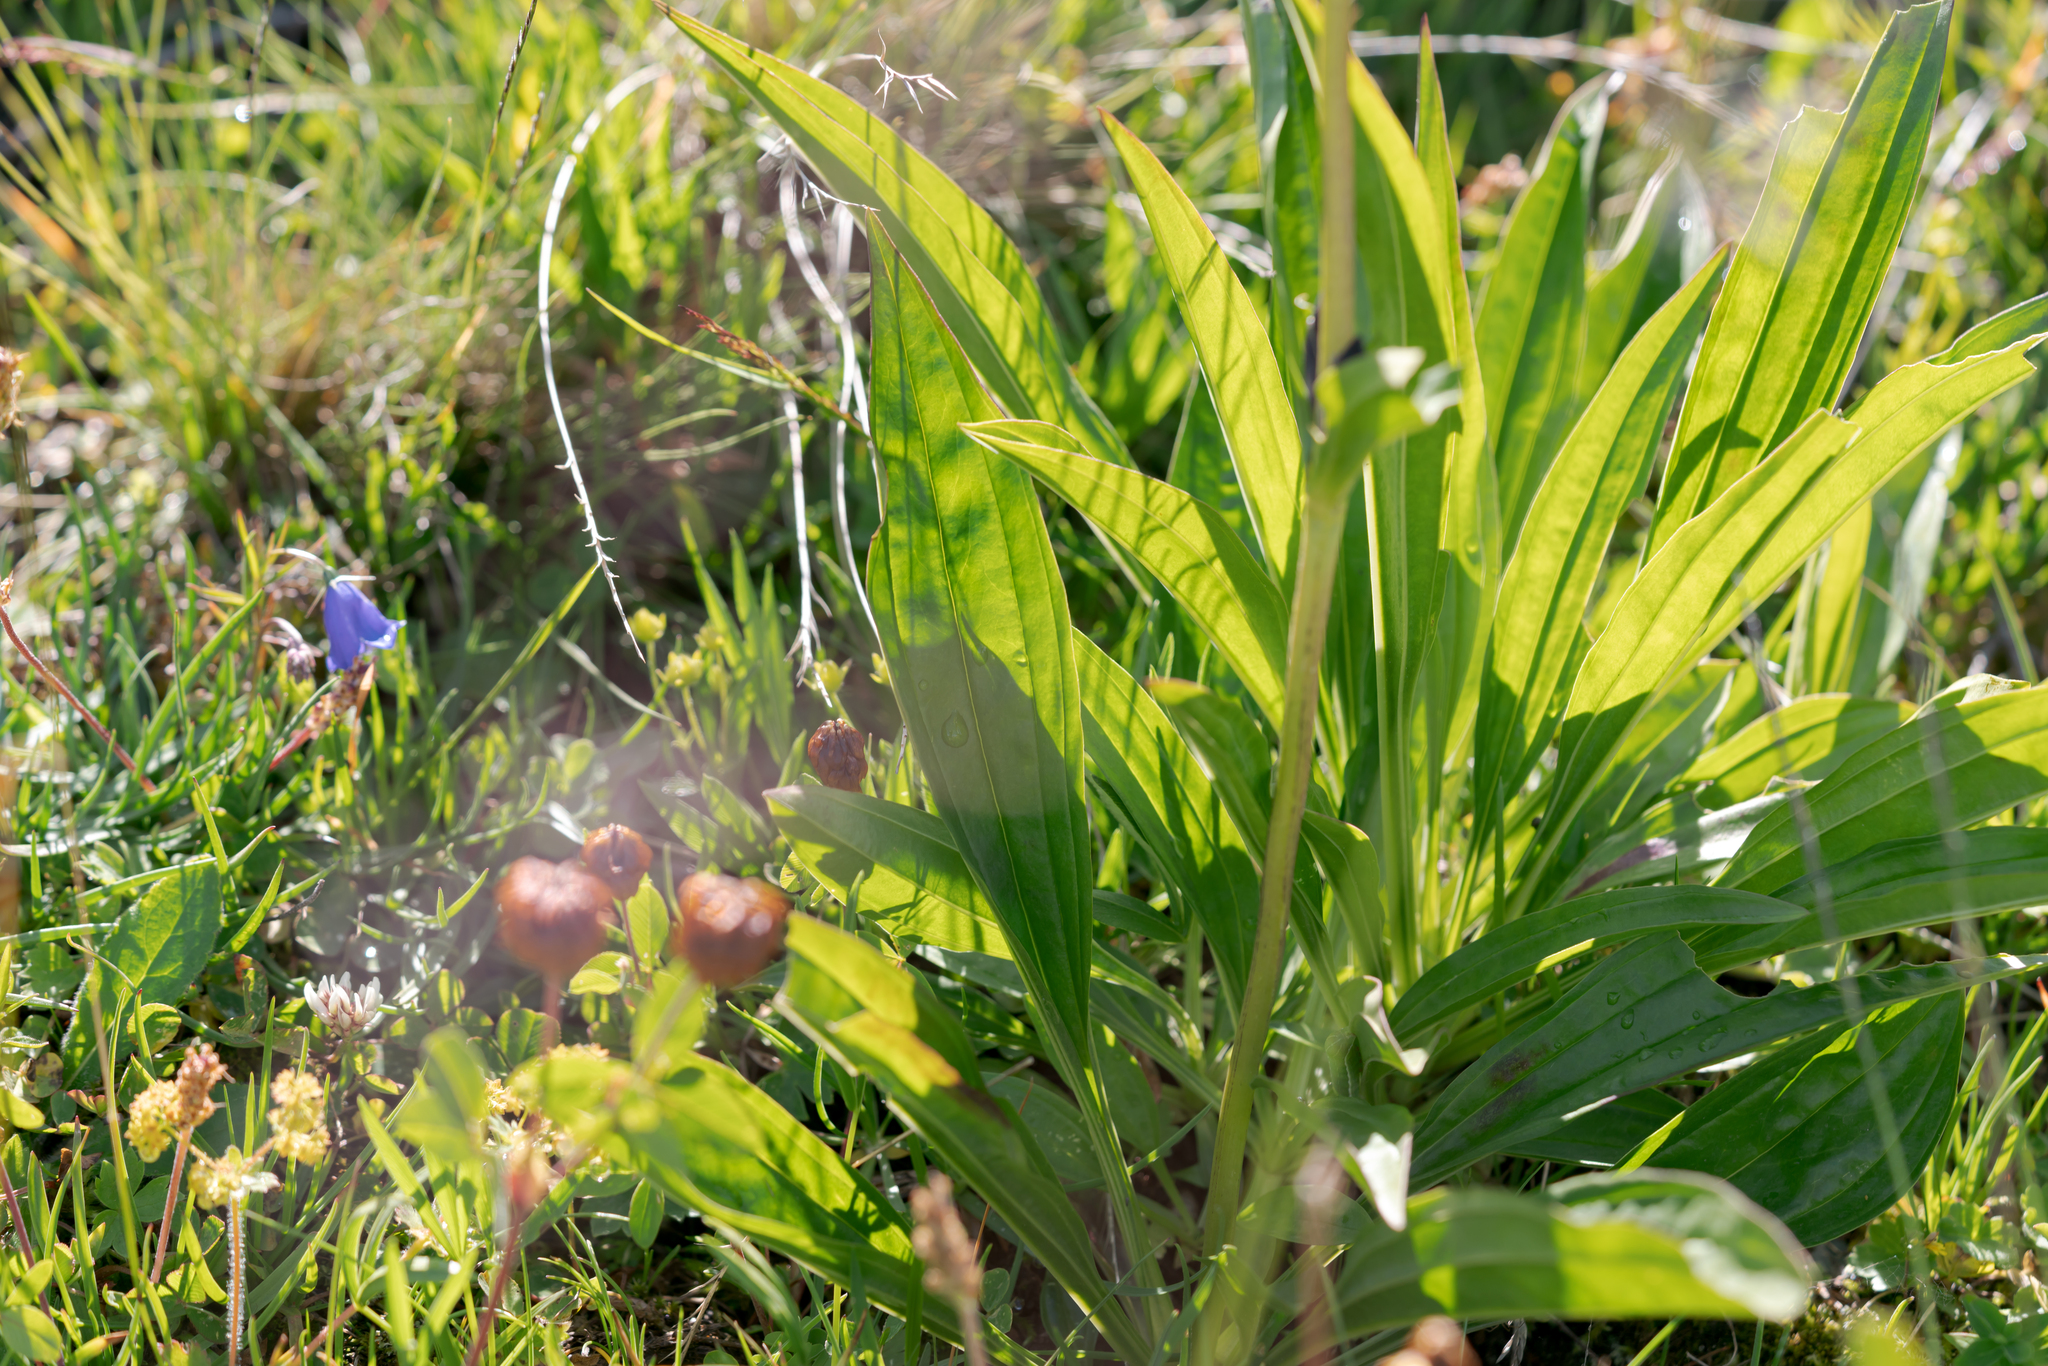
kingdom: Plantae
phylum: Tracheophyta
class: Magnoliopsida
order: Gentianales
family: Gentianaceae
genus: Gentiana
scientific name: Gentiana purpurea
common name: Purple gentian
